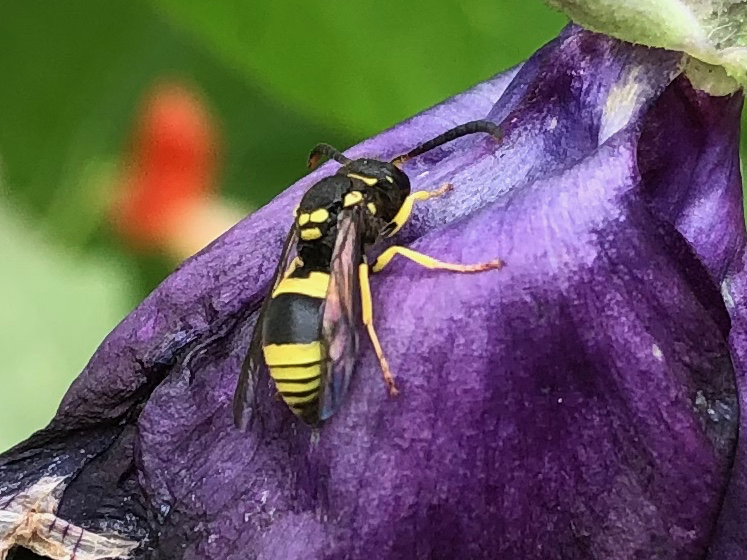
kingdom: Animalia
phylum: Arthropoda
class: Insecta
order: Hymenoptera
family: Vespidae
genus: Ancistrocerus
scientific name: Ancistrocerus gazella
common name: European tube wasp
